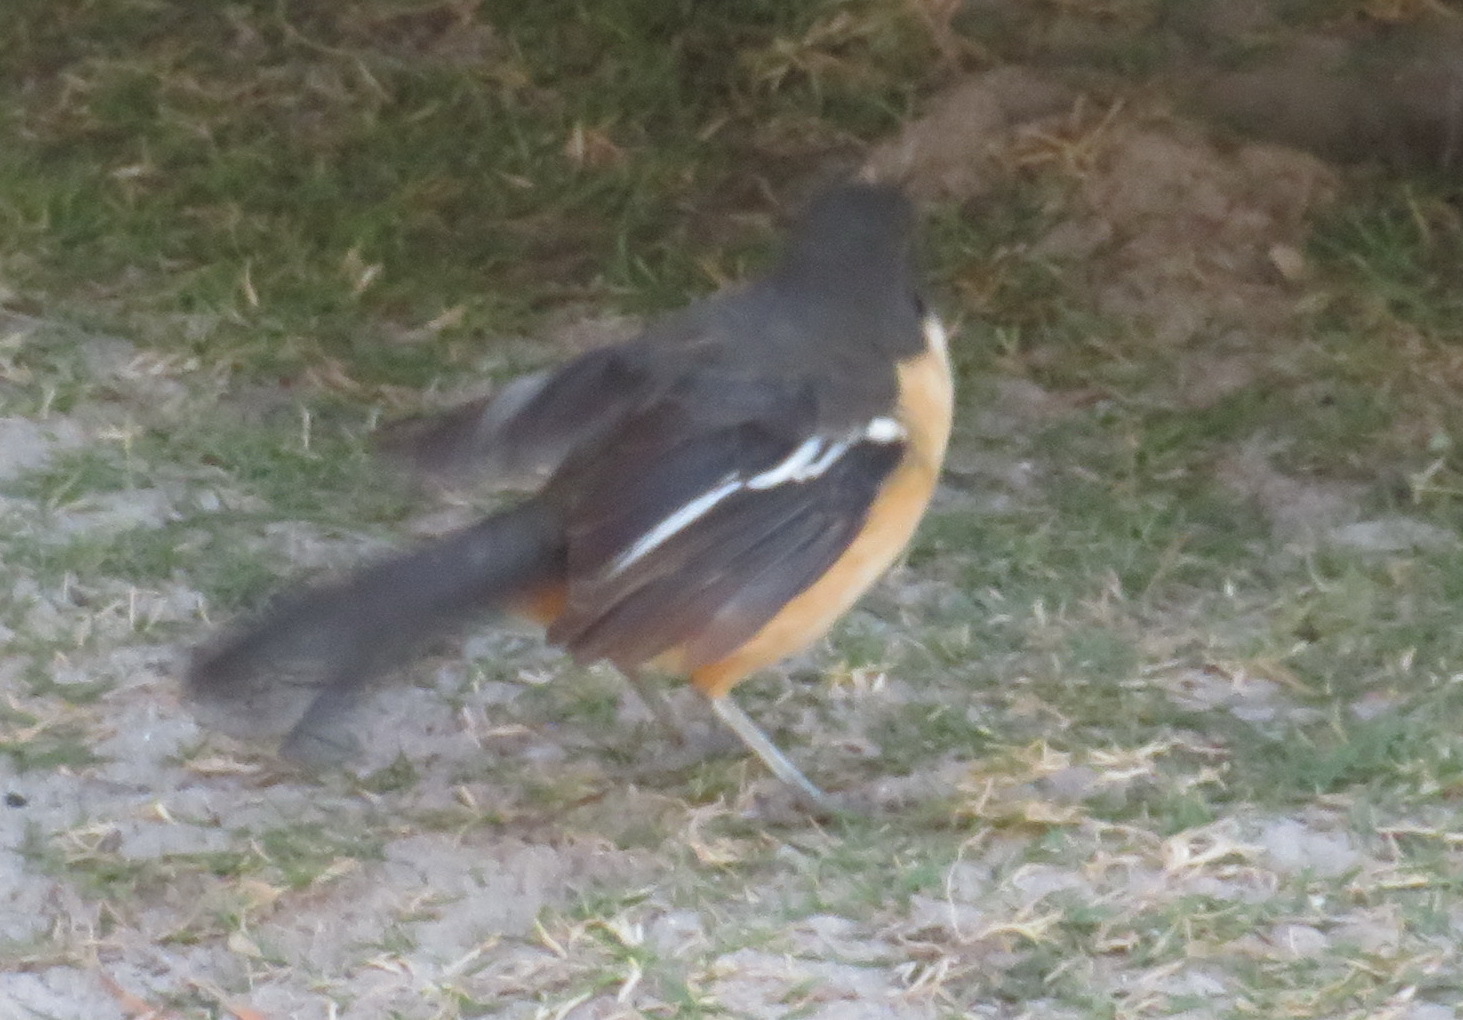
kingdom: Animalia
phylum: Chordata
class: Aves
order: Passeriformes
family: Malaconotidae
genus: Laniarius
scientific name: Laniarius ferrugineus
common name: Southern boubou
